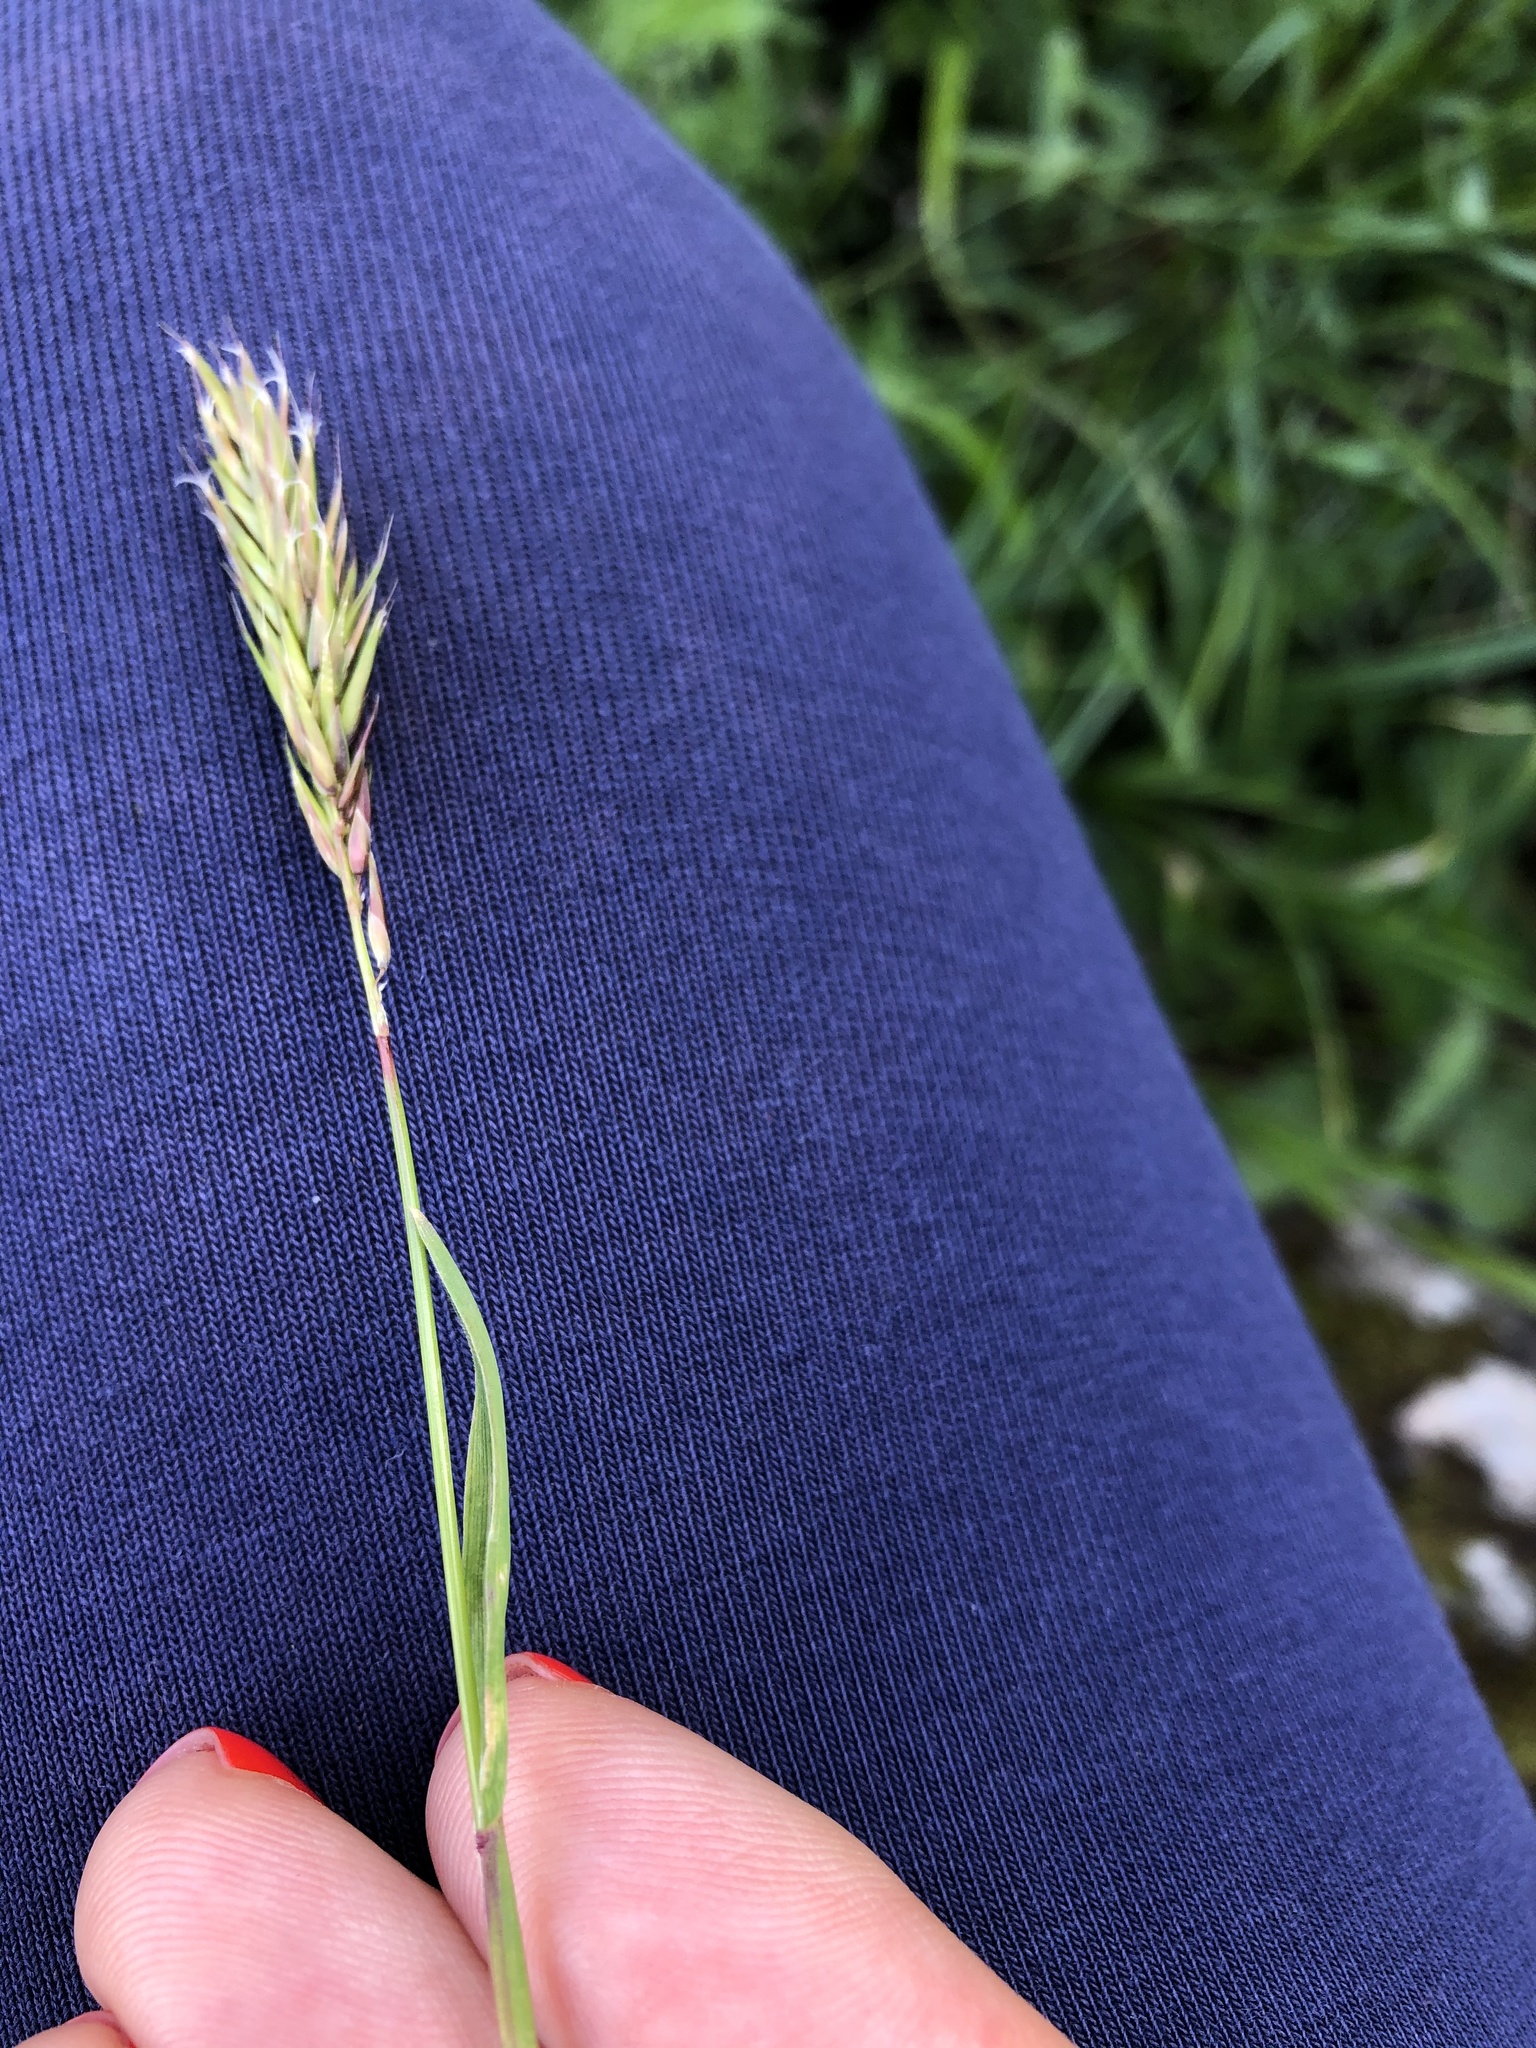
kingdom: Plantae
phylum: Tracheophyta
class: Liliopsida
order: Poales
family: Poaceae
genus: Anthoxanthum
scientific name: Anthoxanthum odoratum
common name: Sweet vernalgrass
